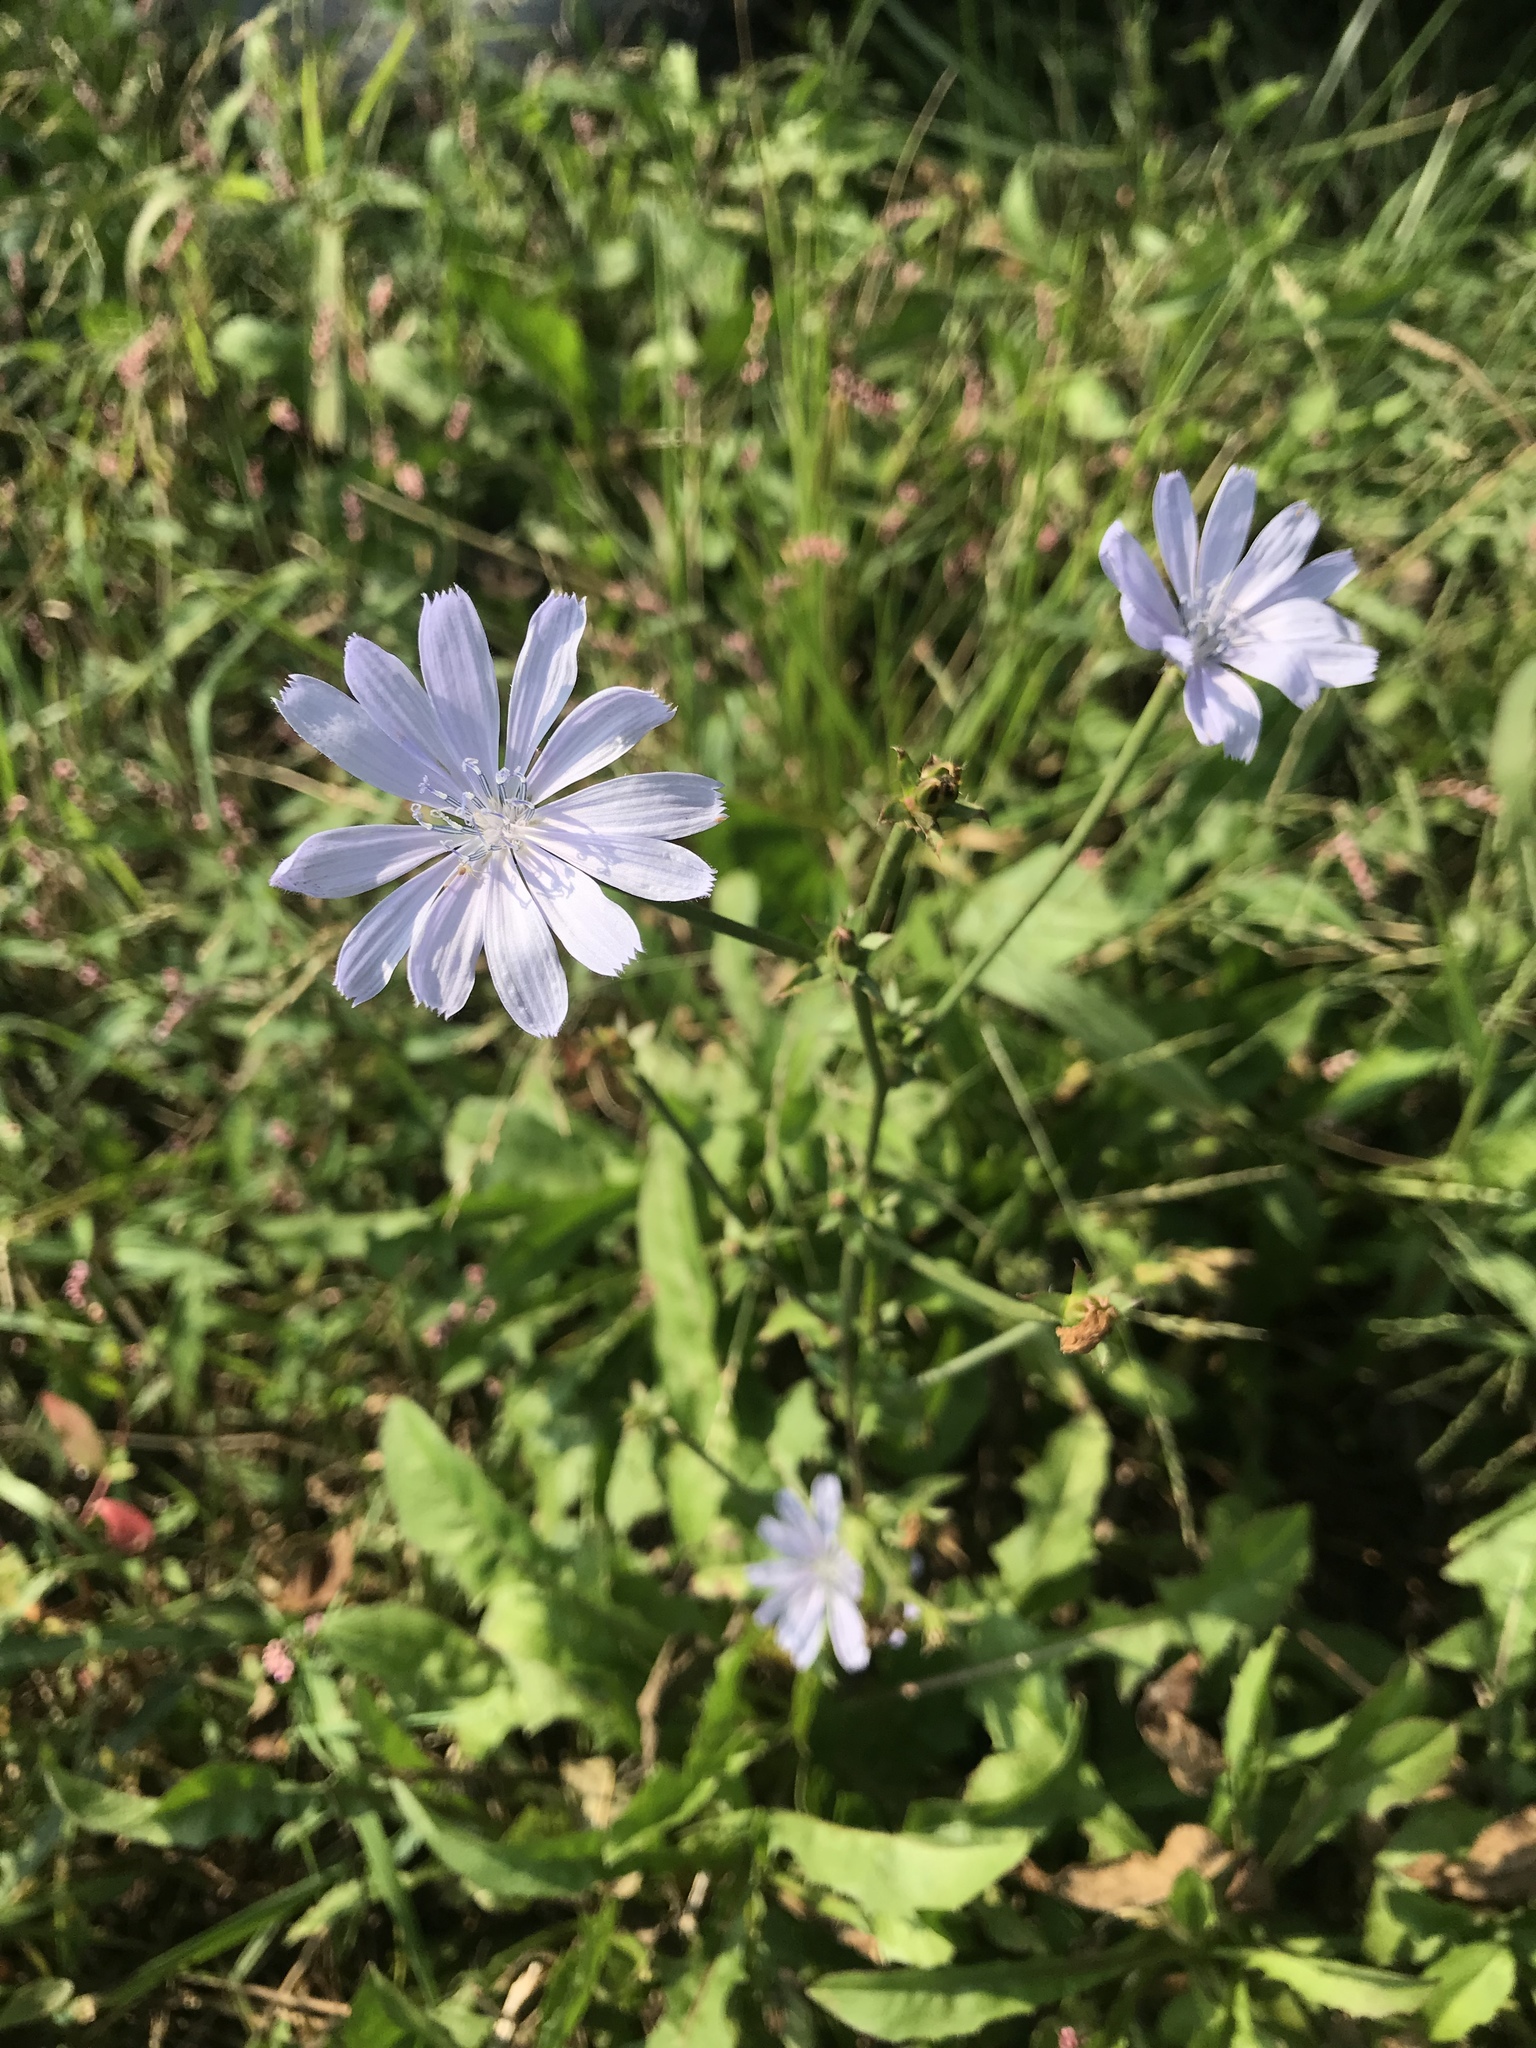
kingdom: Plantae
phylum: Tracheophyta
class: Magnoliopsida
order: Asterales
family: Asteraceae
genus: Cichorium
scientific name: Cichorium intybus
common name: Chicory
